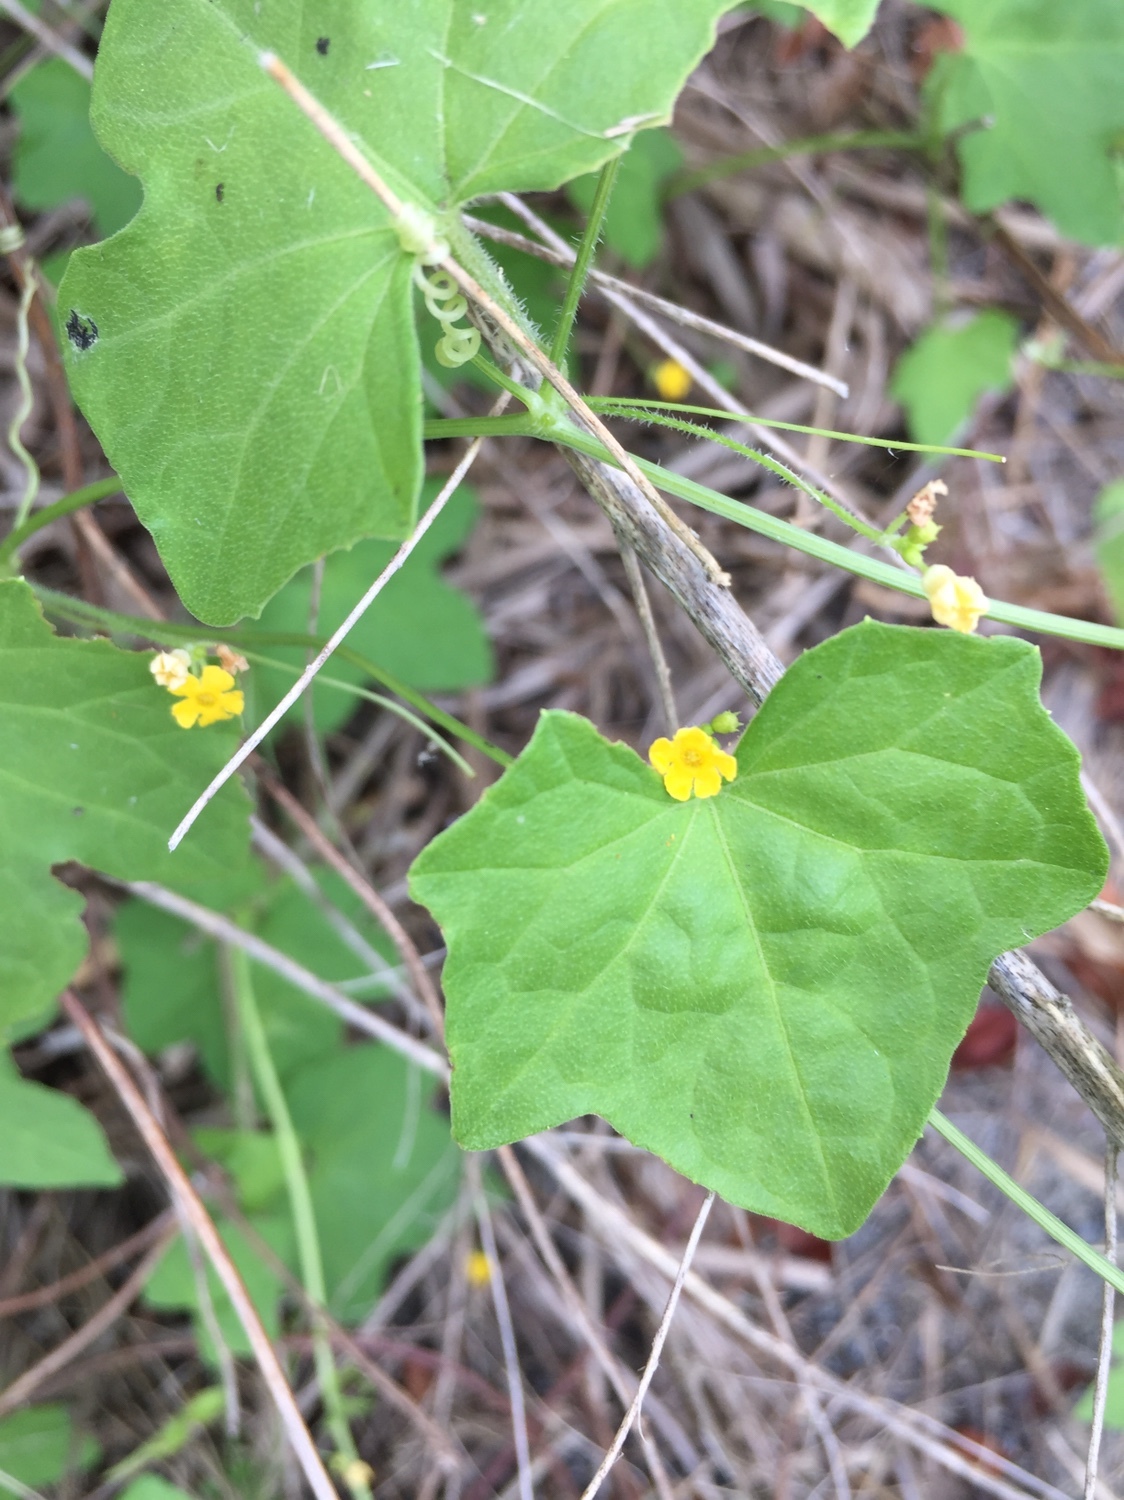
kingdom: Plantae
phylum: Tracheophyta
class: Magnoliopsida
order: Cucurbitales
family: Cucurbitaceae
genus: Melothria
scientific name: Melothria pendula
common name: Creeping-cucumber
